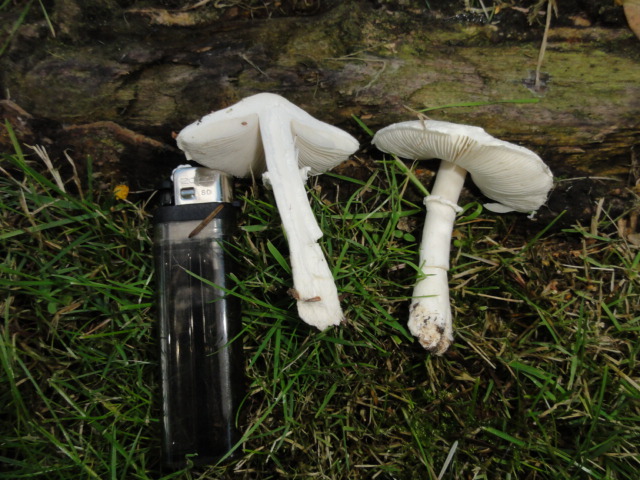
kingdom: Fungi
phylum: Basidiomycota
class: Agaricomycetes
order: Agaricales
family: Agaricaceae
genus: Leucoagaricus
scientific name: Leucoagaricus leucothites
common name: White dapperling
